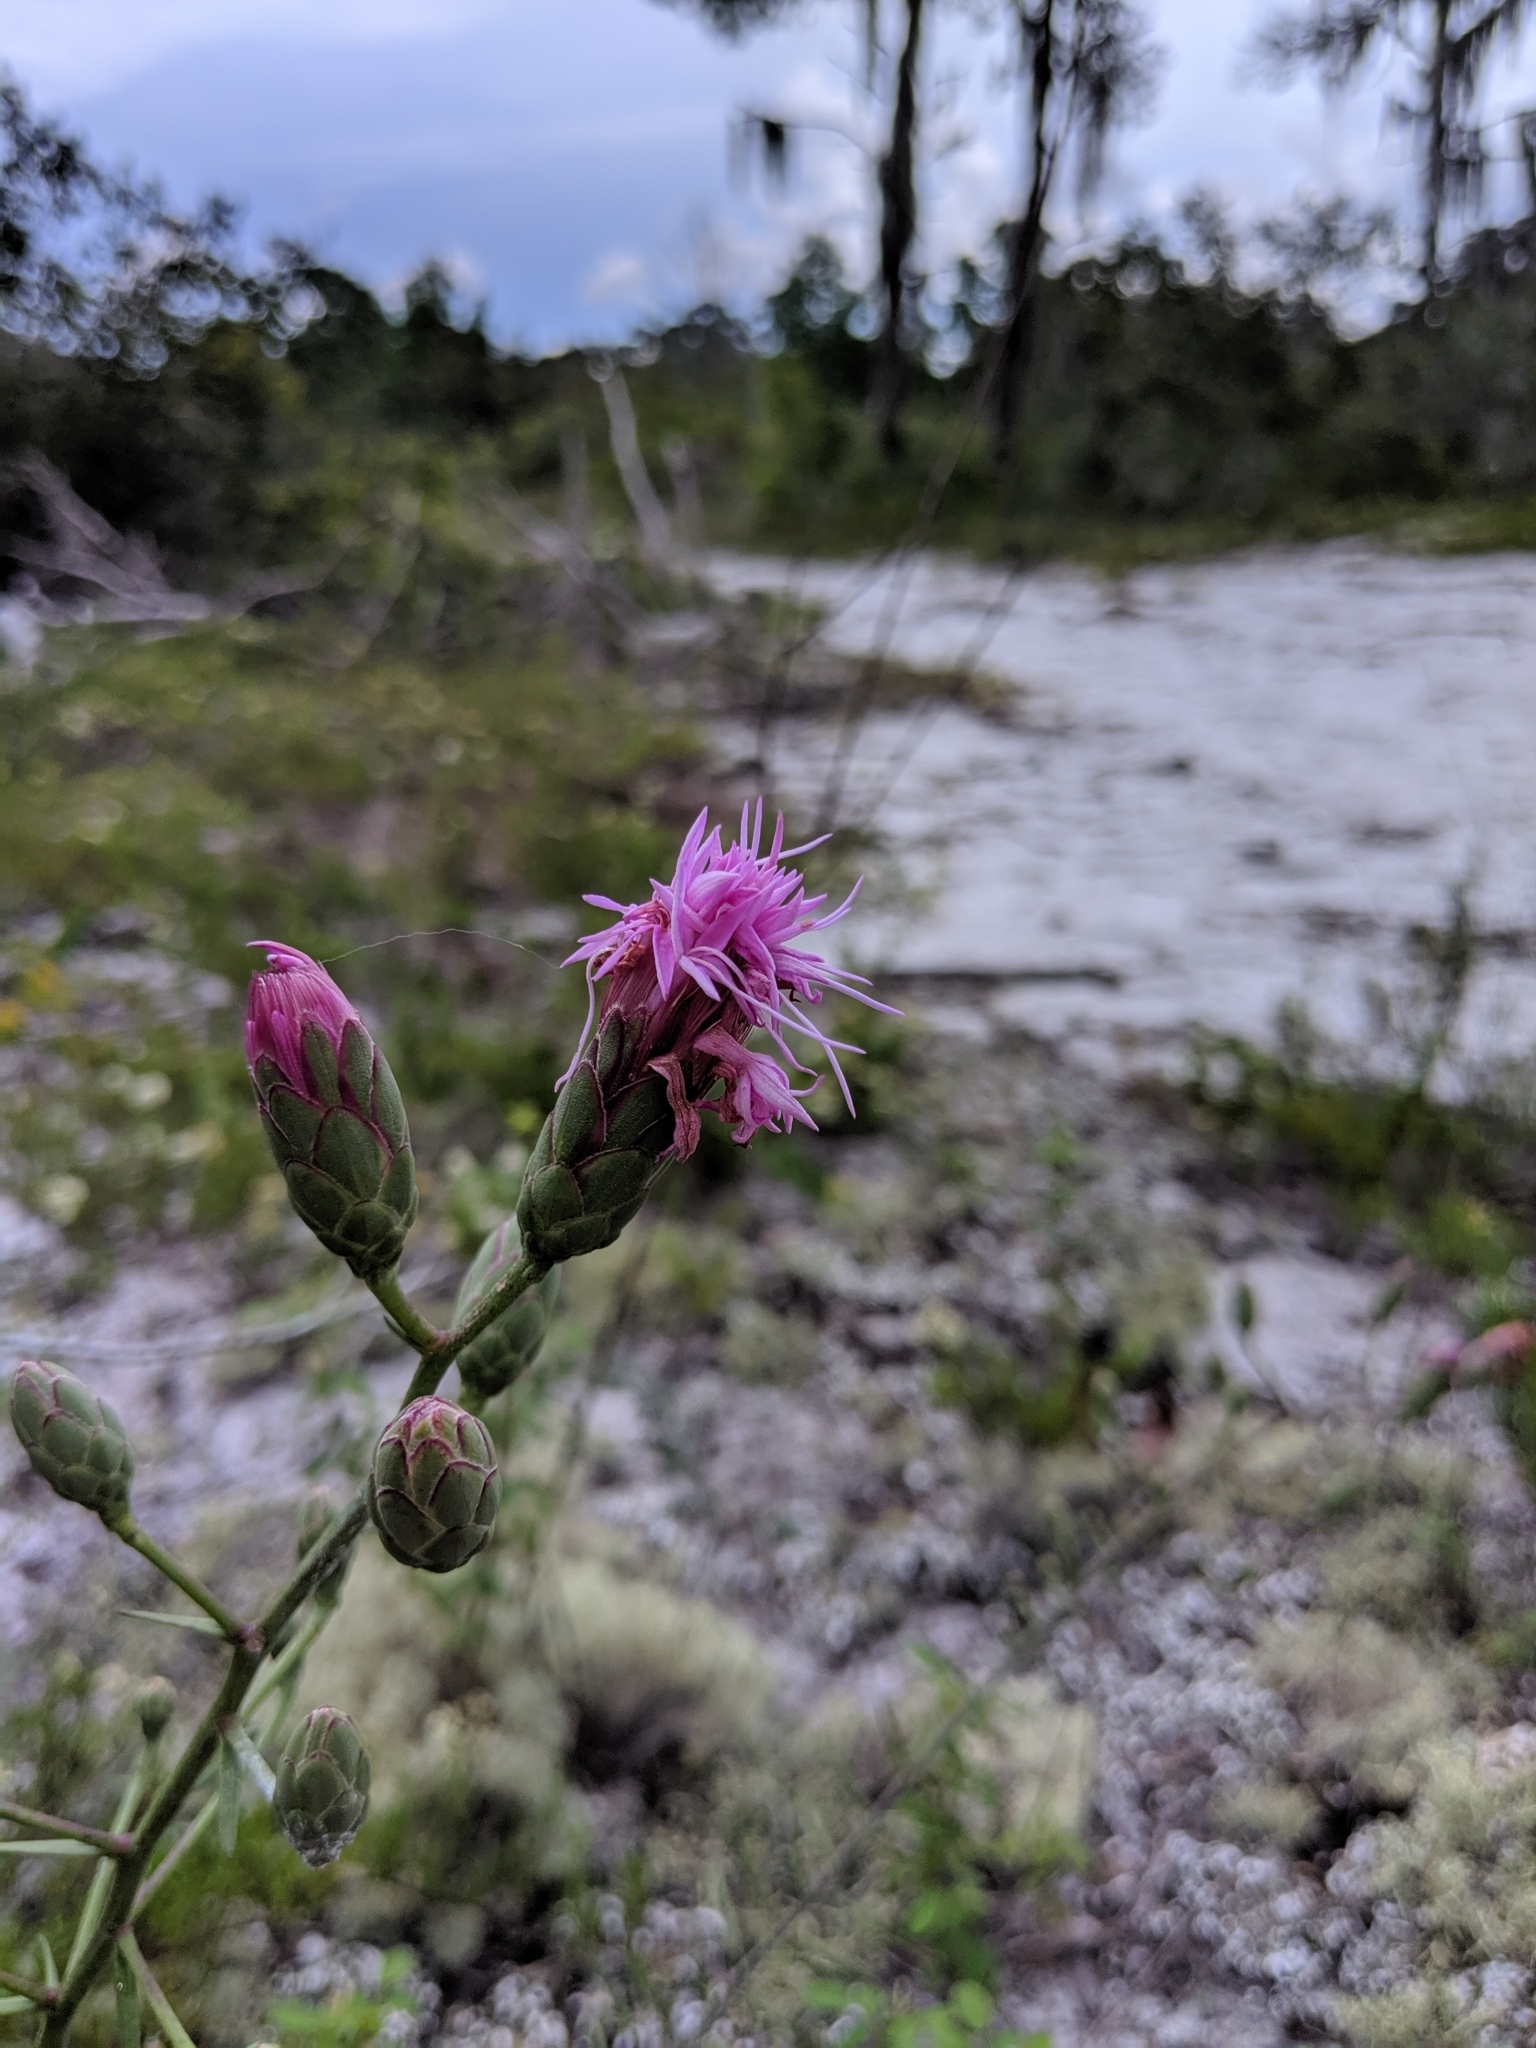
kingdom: Plantae
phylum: Tracheophyta
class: Magnoliopsida
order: Asterales
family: Asteraceae
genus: Liatris
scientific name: Liatris ohlingerae
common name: Scrub blazingstar
